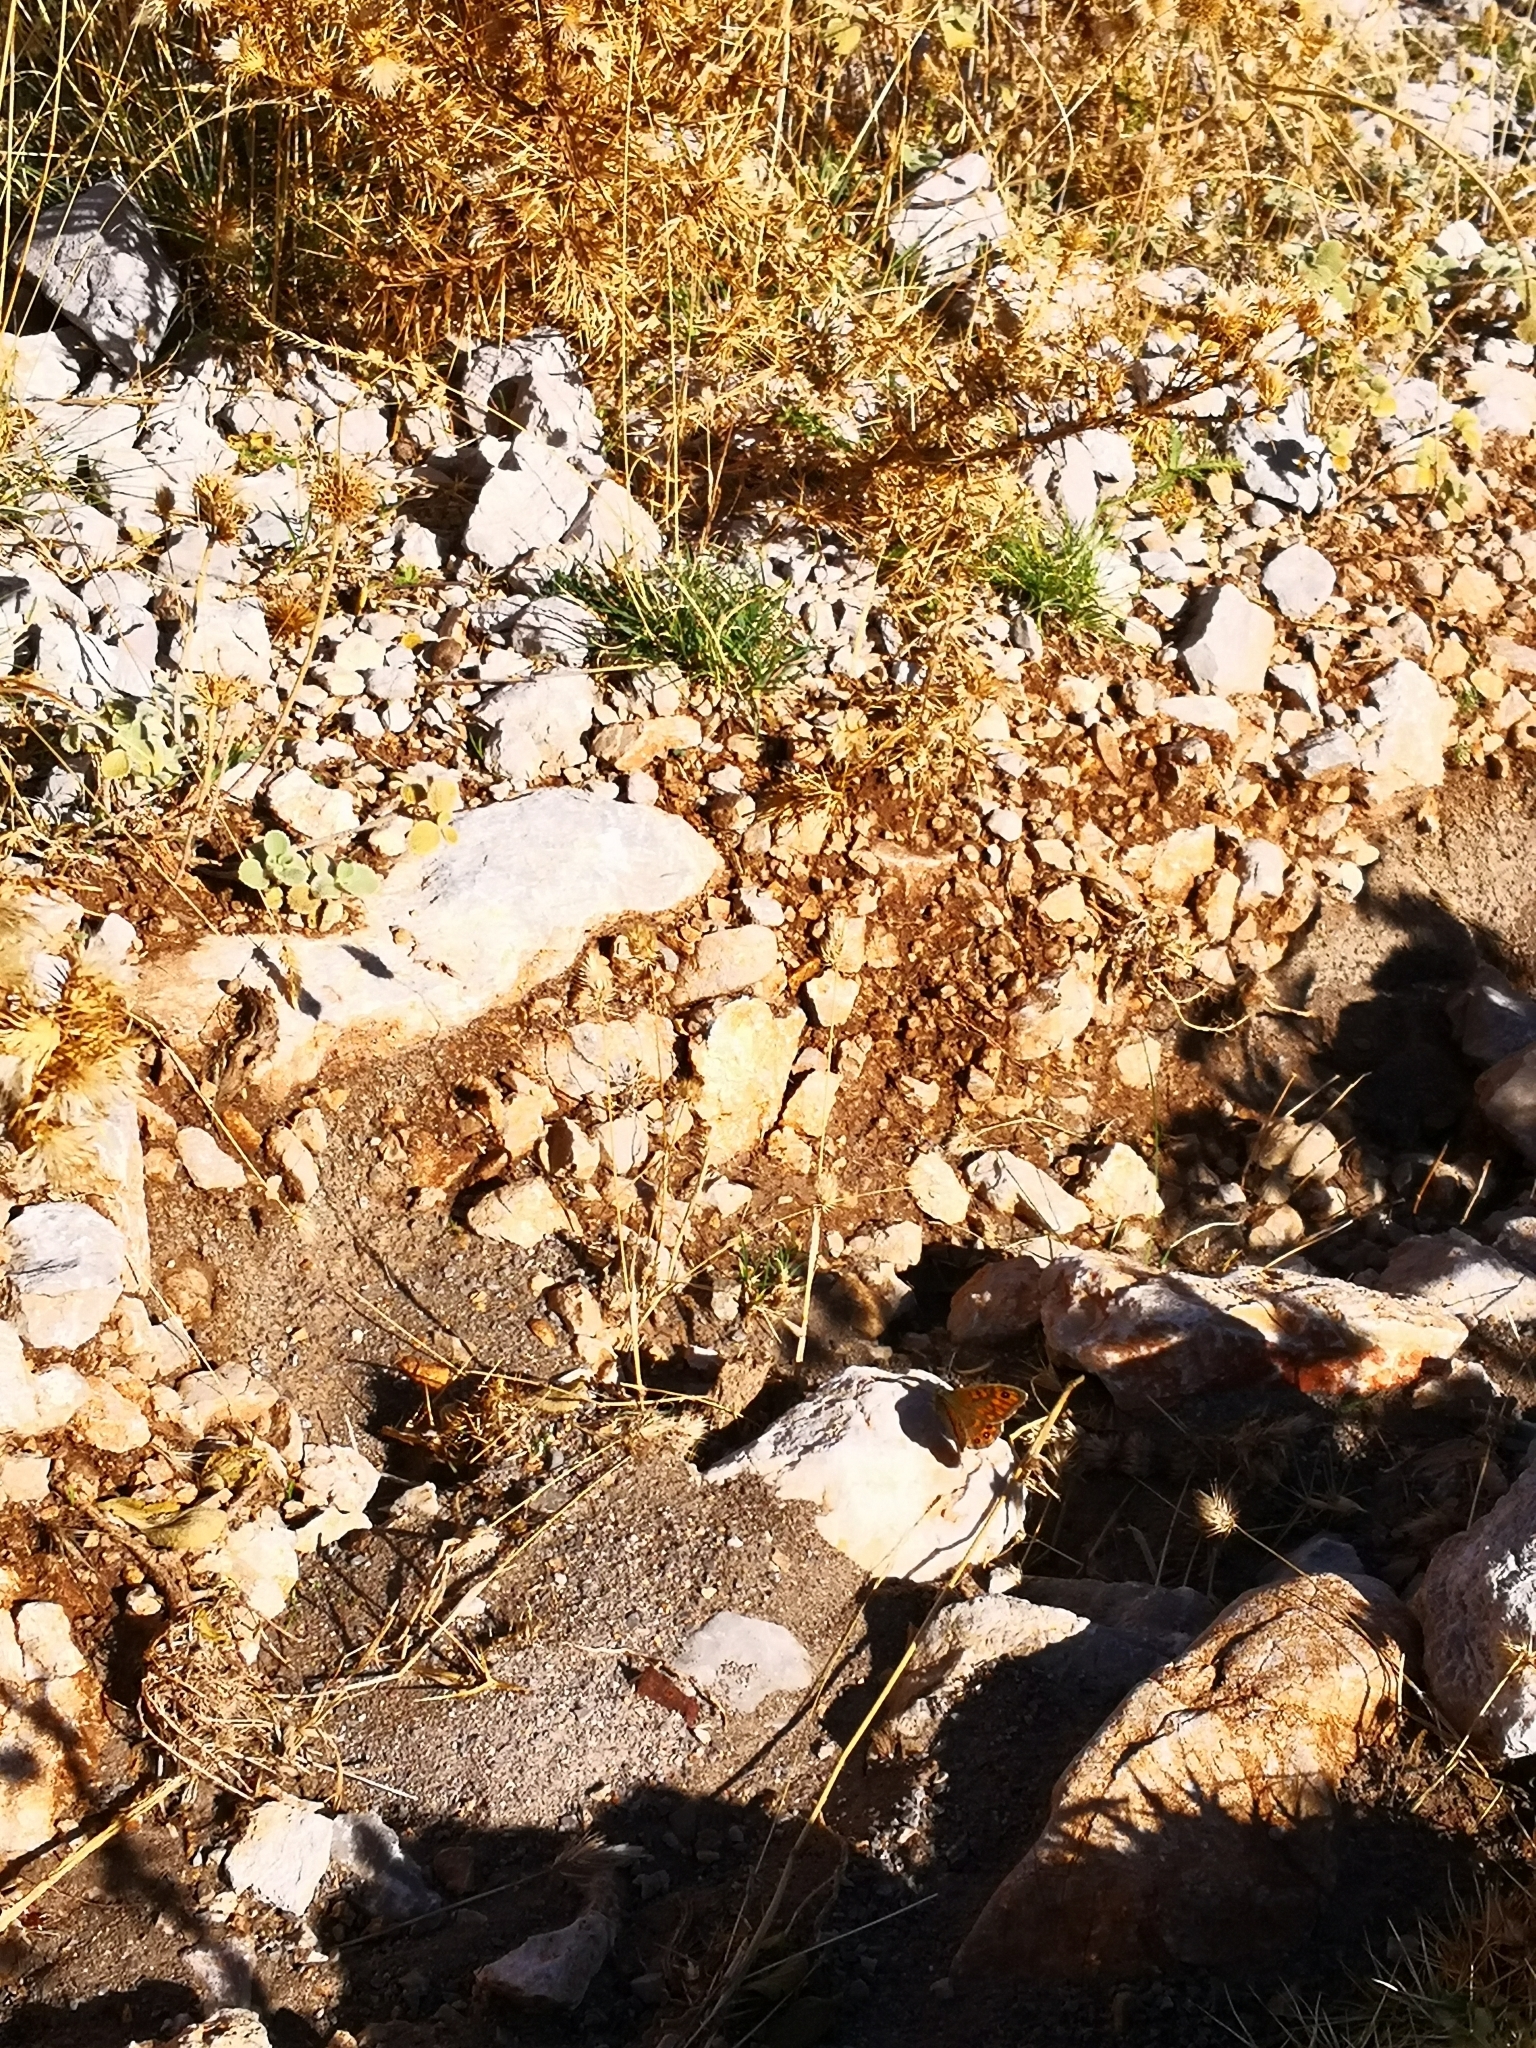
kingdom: Animalia
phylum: Arthropoda
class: Insecta
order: Lepidoptera
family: Nymphalidae
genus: Pararge
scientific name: Pararge Lasiommata megera
